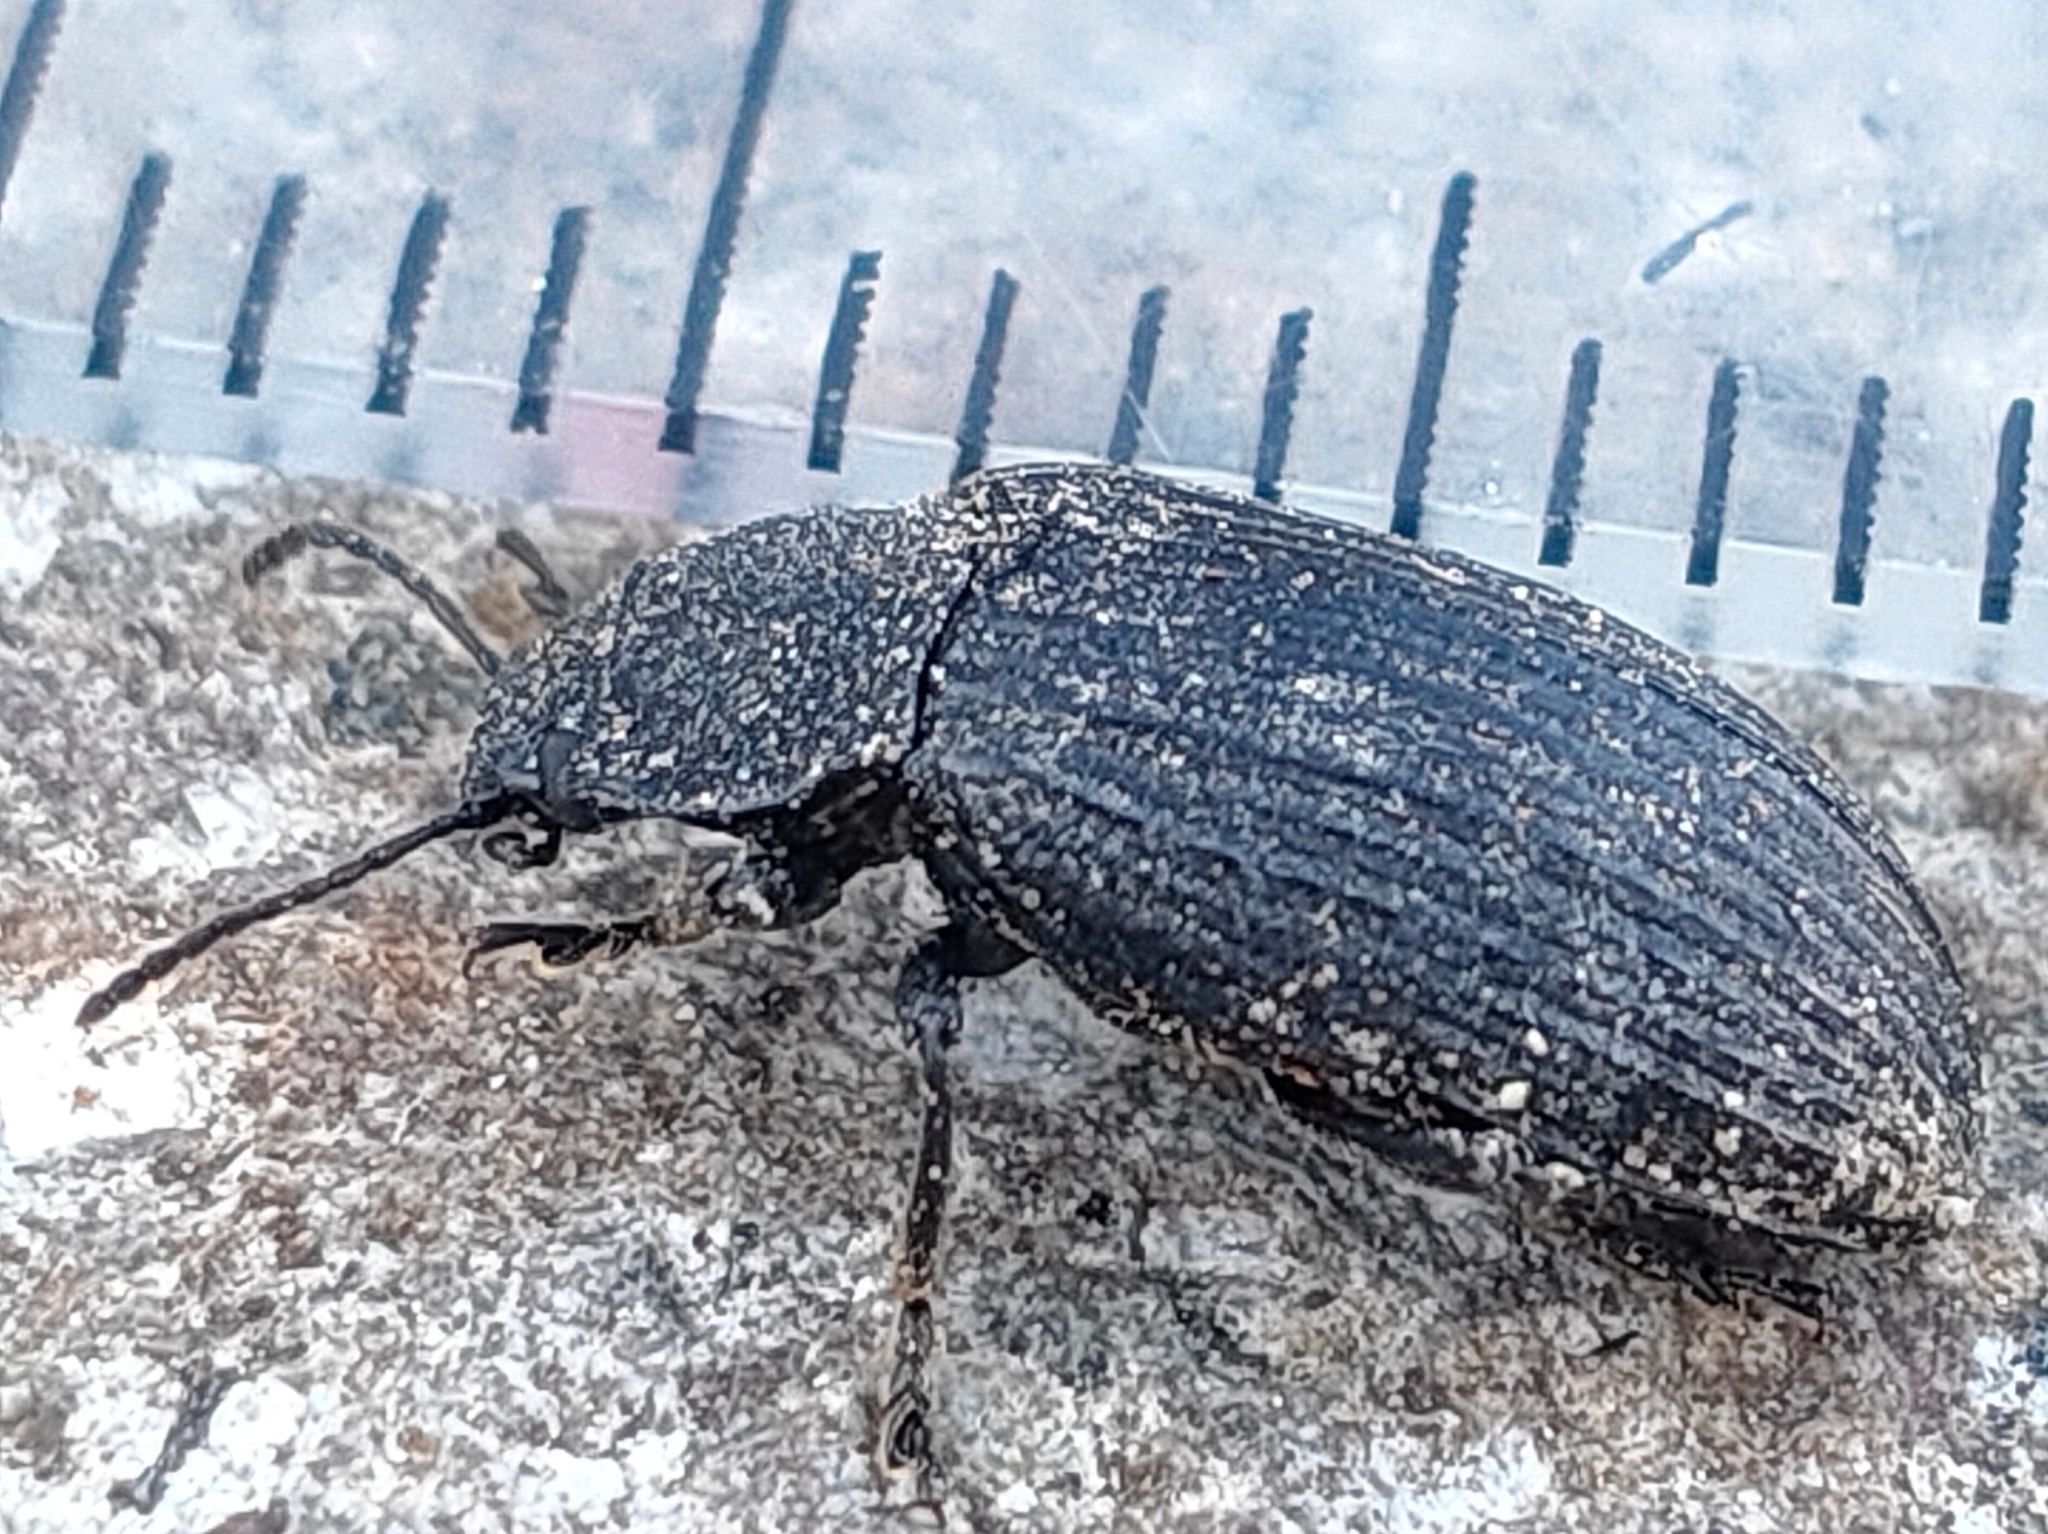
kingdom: Animalia
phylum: Arthropoda
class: Insecta
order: Coleoptera
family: Tenebrionidae
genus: Heterotarsus
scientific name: Heterotarsus carinula
